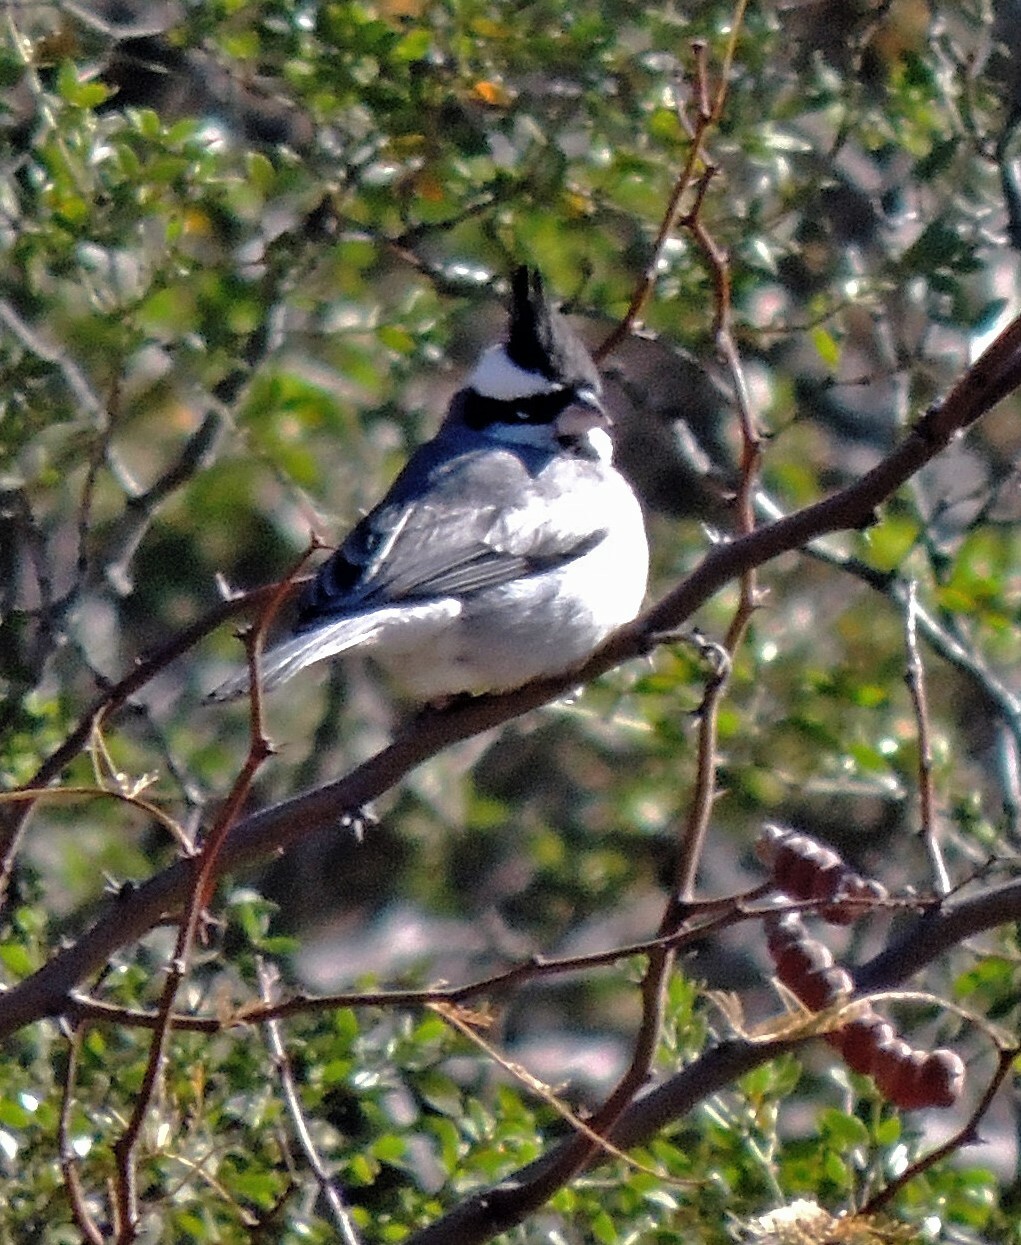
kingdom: Animalia
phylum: Chordata
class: Aves
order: Passeriformes
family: Thraupidae
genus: Lophospingus
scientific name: Lophospingus pusillus
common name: Black-crested finch
